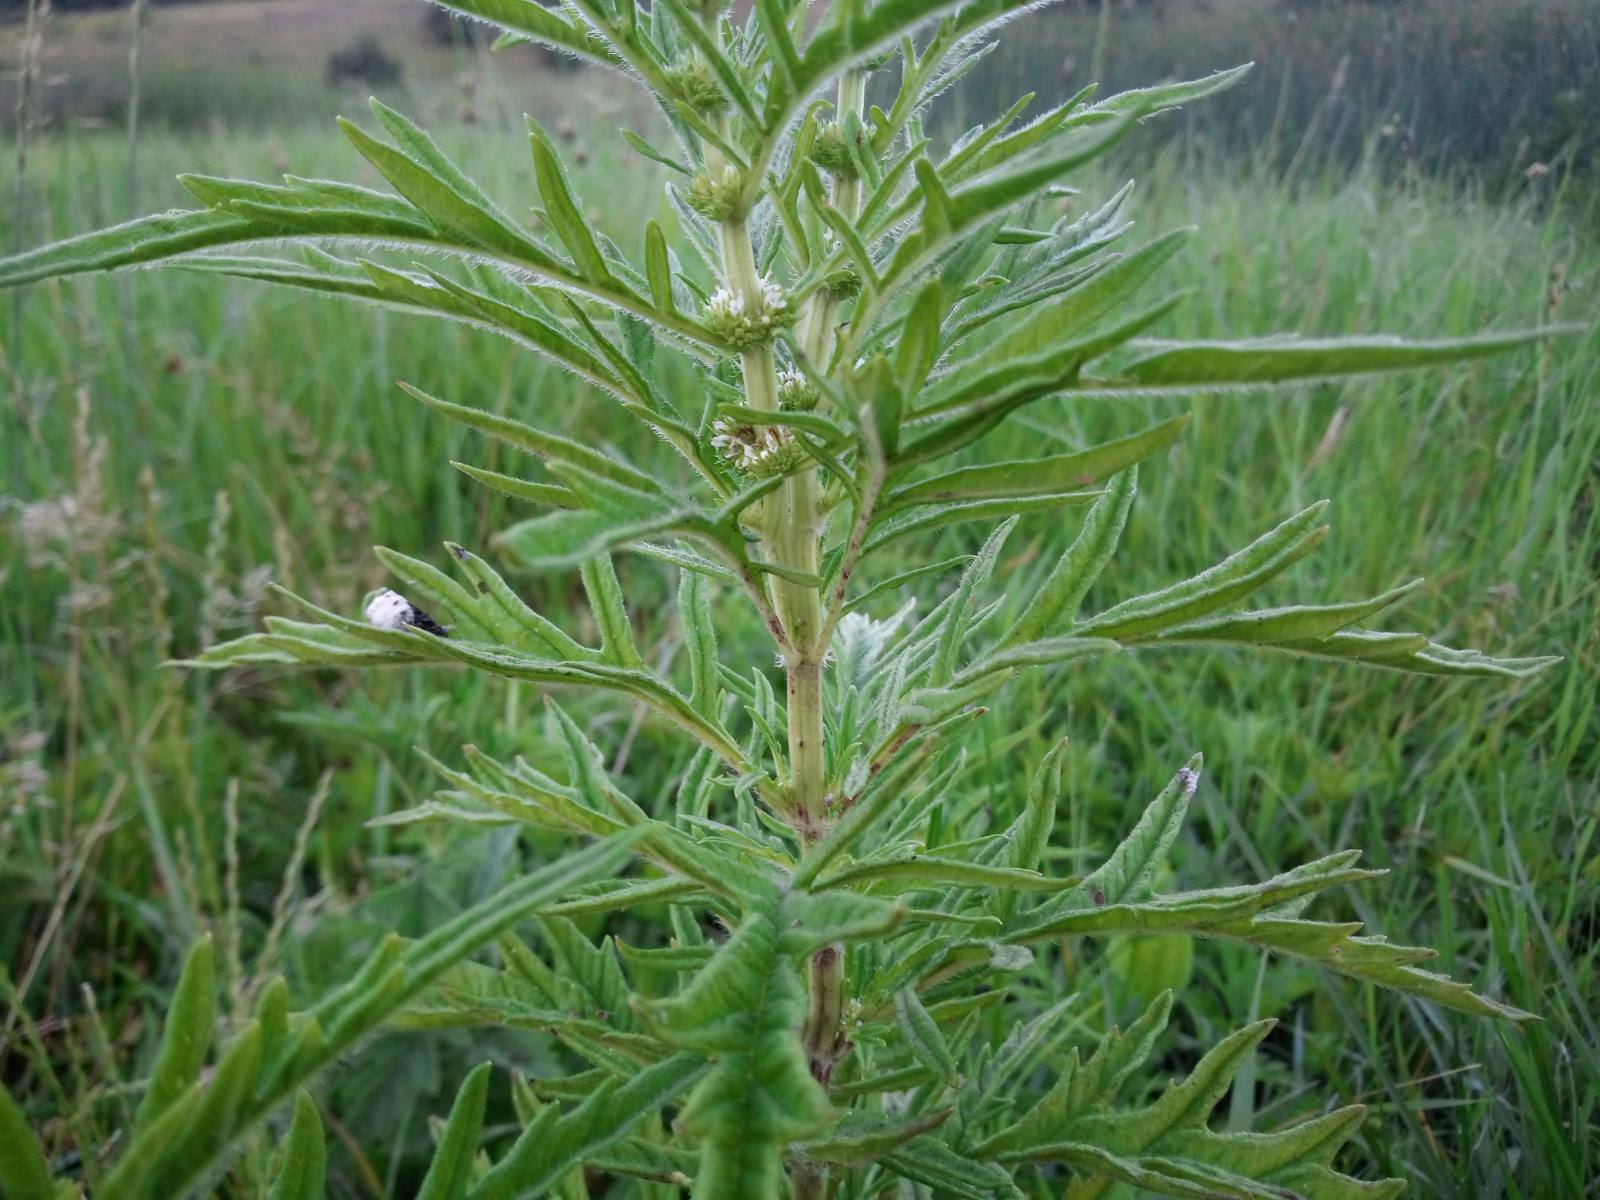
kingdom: Plantae
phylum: Tracheophyta
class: Magnoliopsida
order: Lamiales
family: Lamiaceae
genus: Lycopus
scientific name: Lycopus exaltatus
